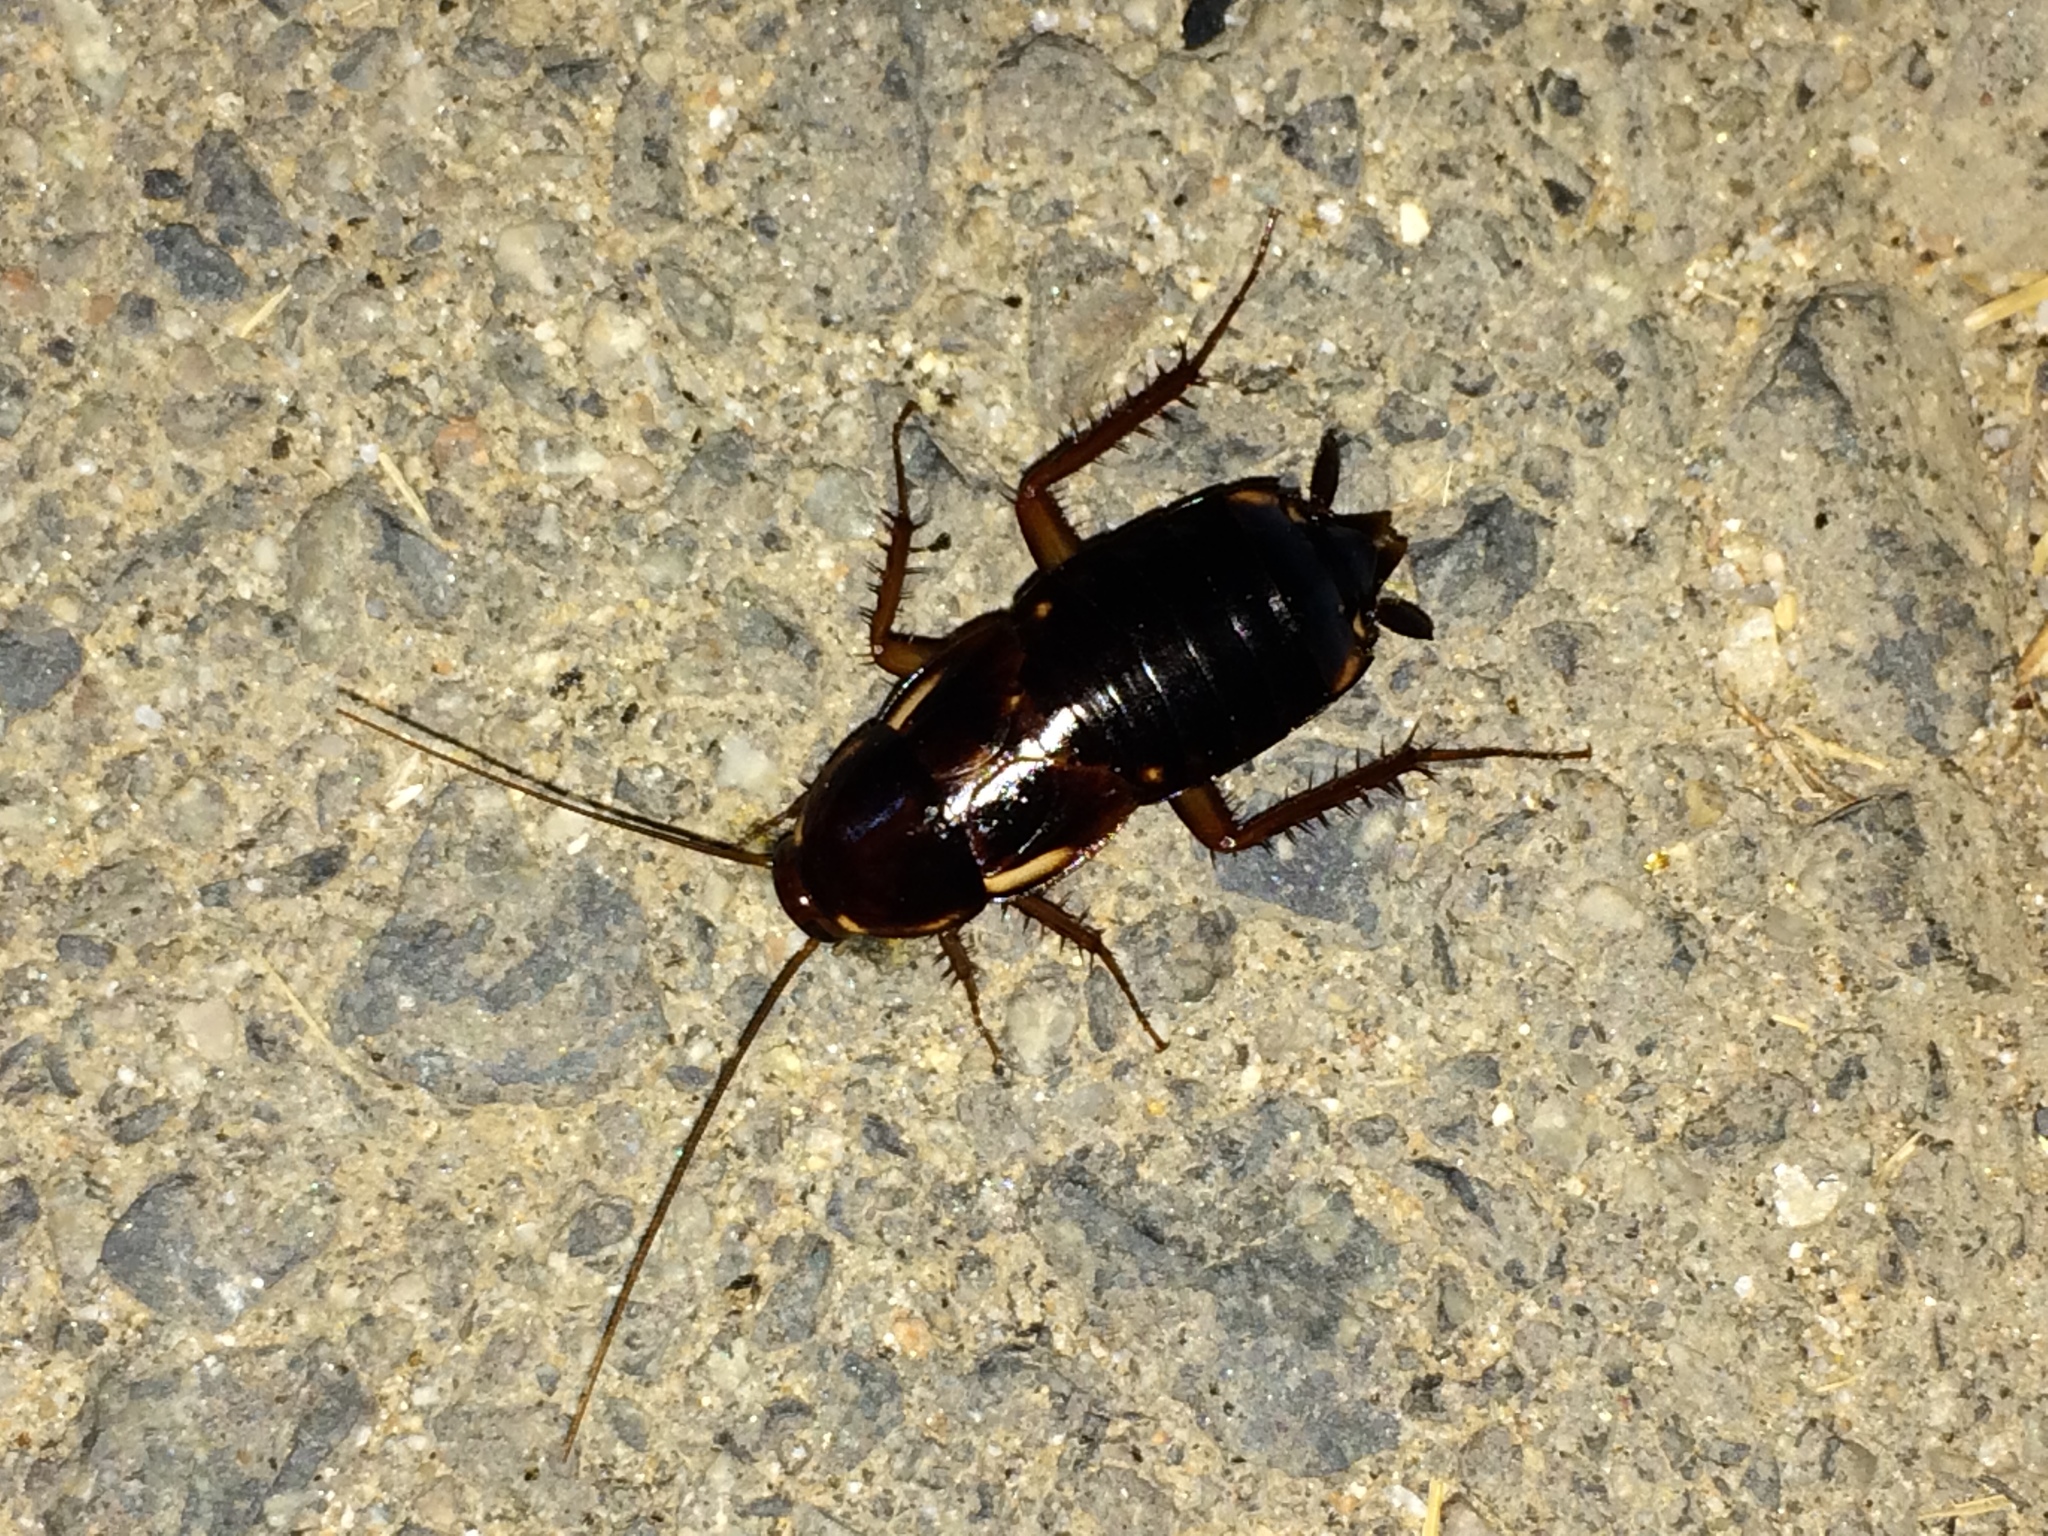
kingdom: Animalia
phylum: Arthropoda
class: Insecta
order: Blattodea
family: Blattidae
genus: Periplaneta
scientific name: Periplaneta lateralis
